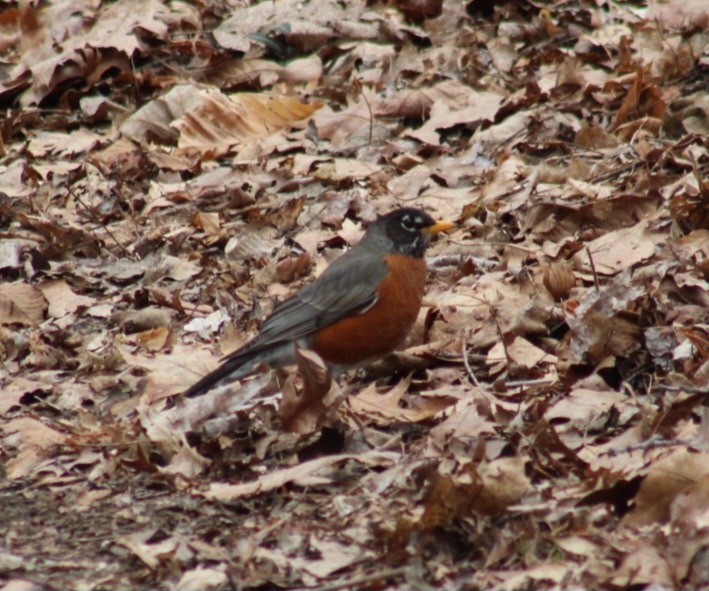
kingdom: Animalia
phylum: Chordata
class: Aves
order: Passeriformes
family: Turdidae
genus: Turdus
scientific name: Turdus migratorius
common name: American robin
